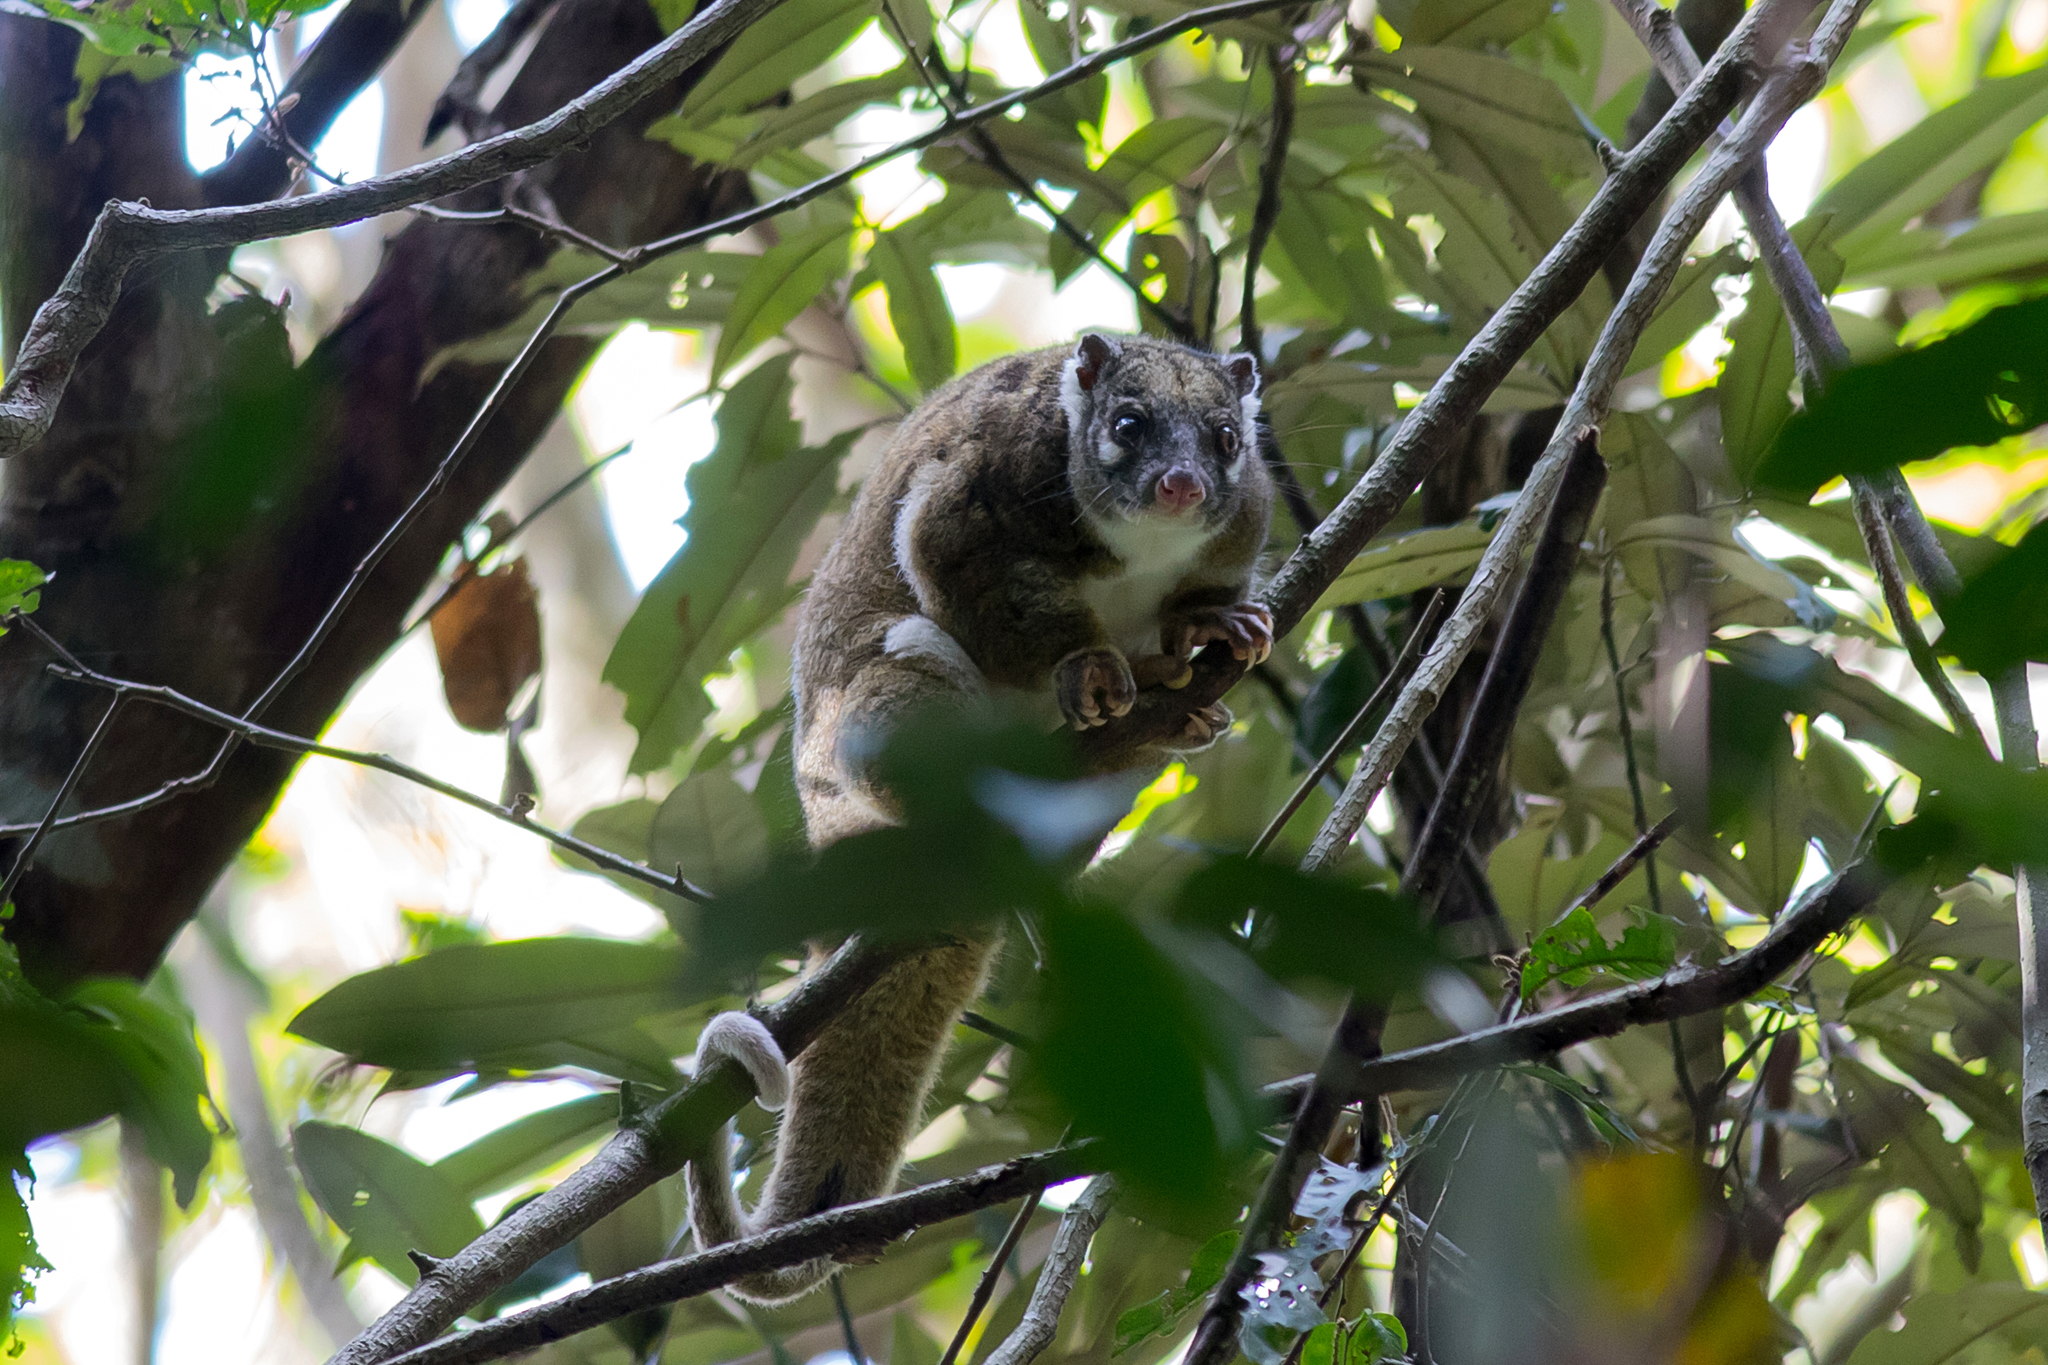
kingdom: Animalia
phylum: Chordata
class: Mammalia
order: Diprotodontia
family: Pseudocheiridae
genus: Pseudochirops
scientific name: Pseudochirops archeri
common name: Green ringtail
